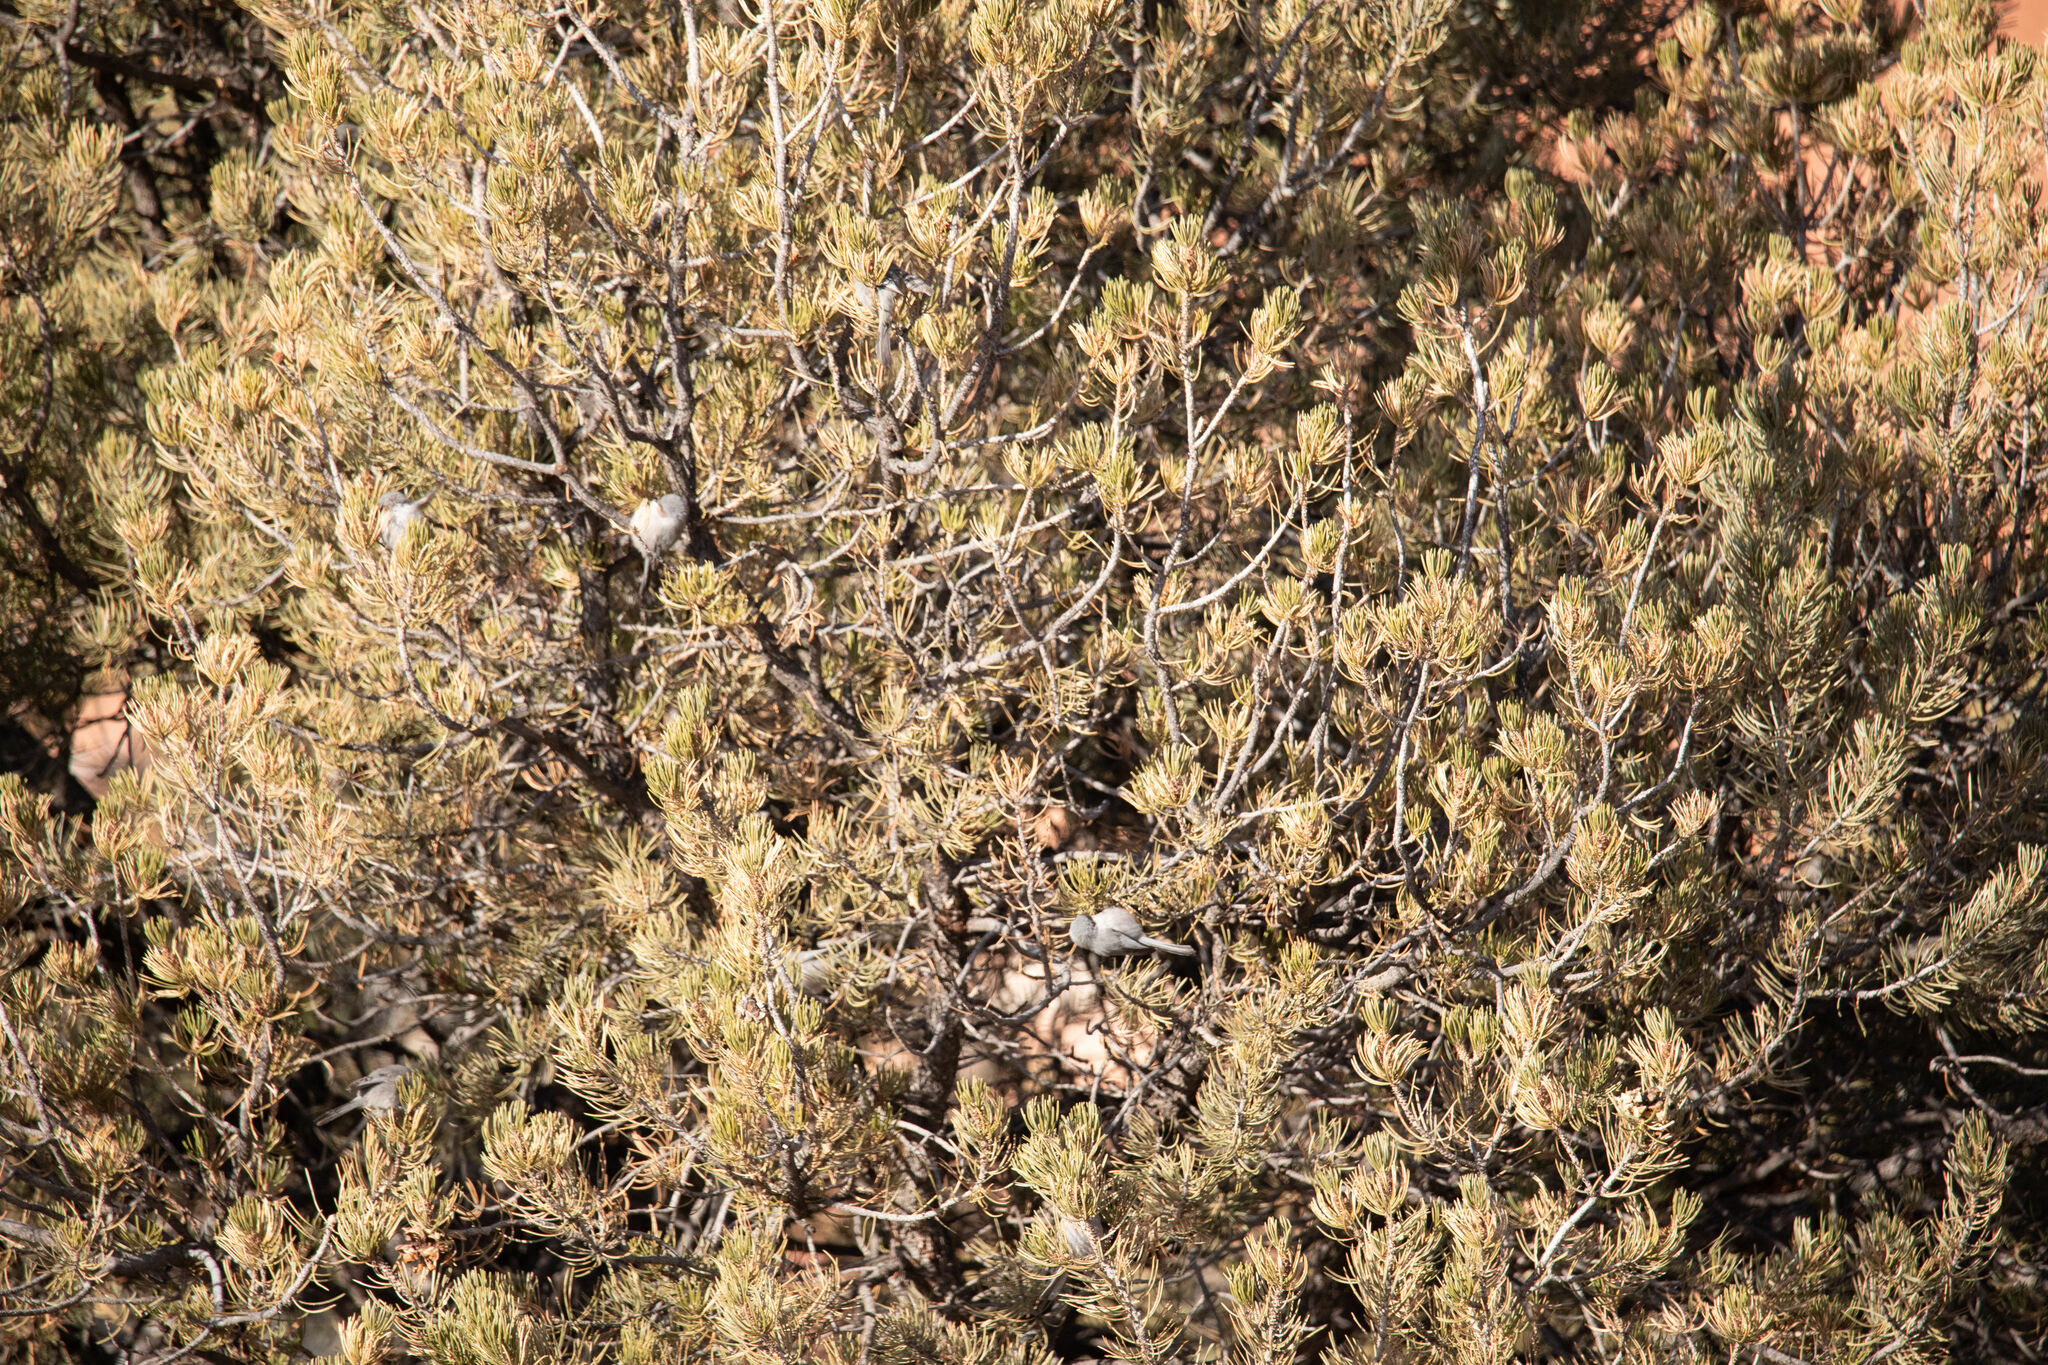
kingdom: Animalia
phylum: Chordata
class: Aves
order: Passeriformes
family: Aegithalidae
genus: Psaltriparus
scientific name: Psaltriparus minimus
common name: American bushtit
